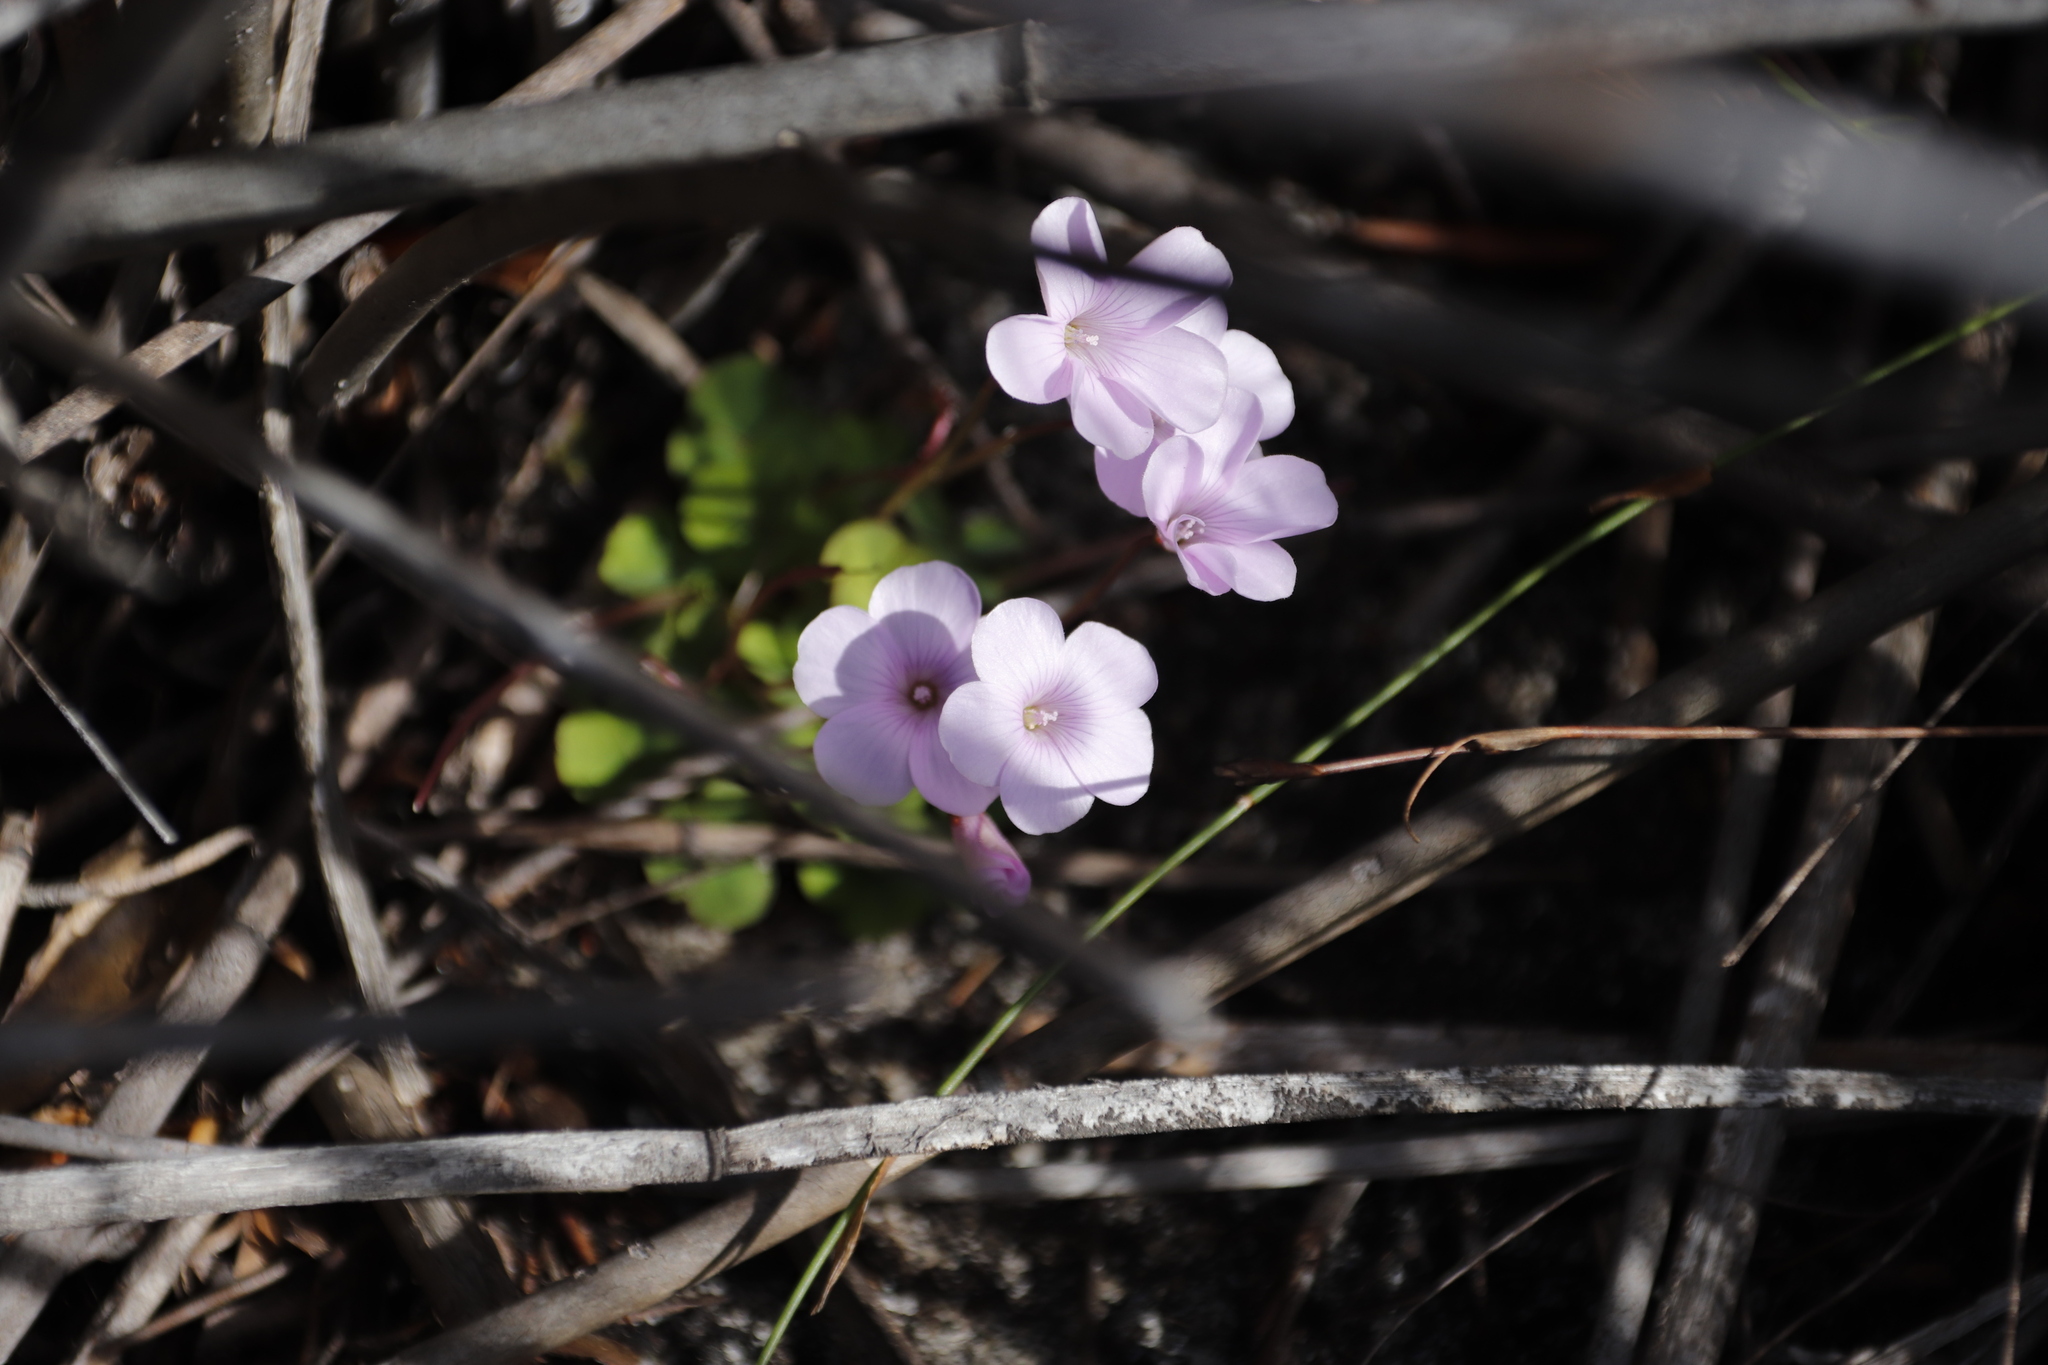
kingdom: Plantae
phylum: Tracheophyta
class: Magnoliopsida
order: Oxalidales
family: Oxalidaceae
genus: Oxalis
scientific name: Oxalis commutata
